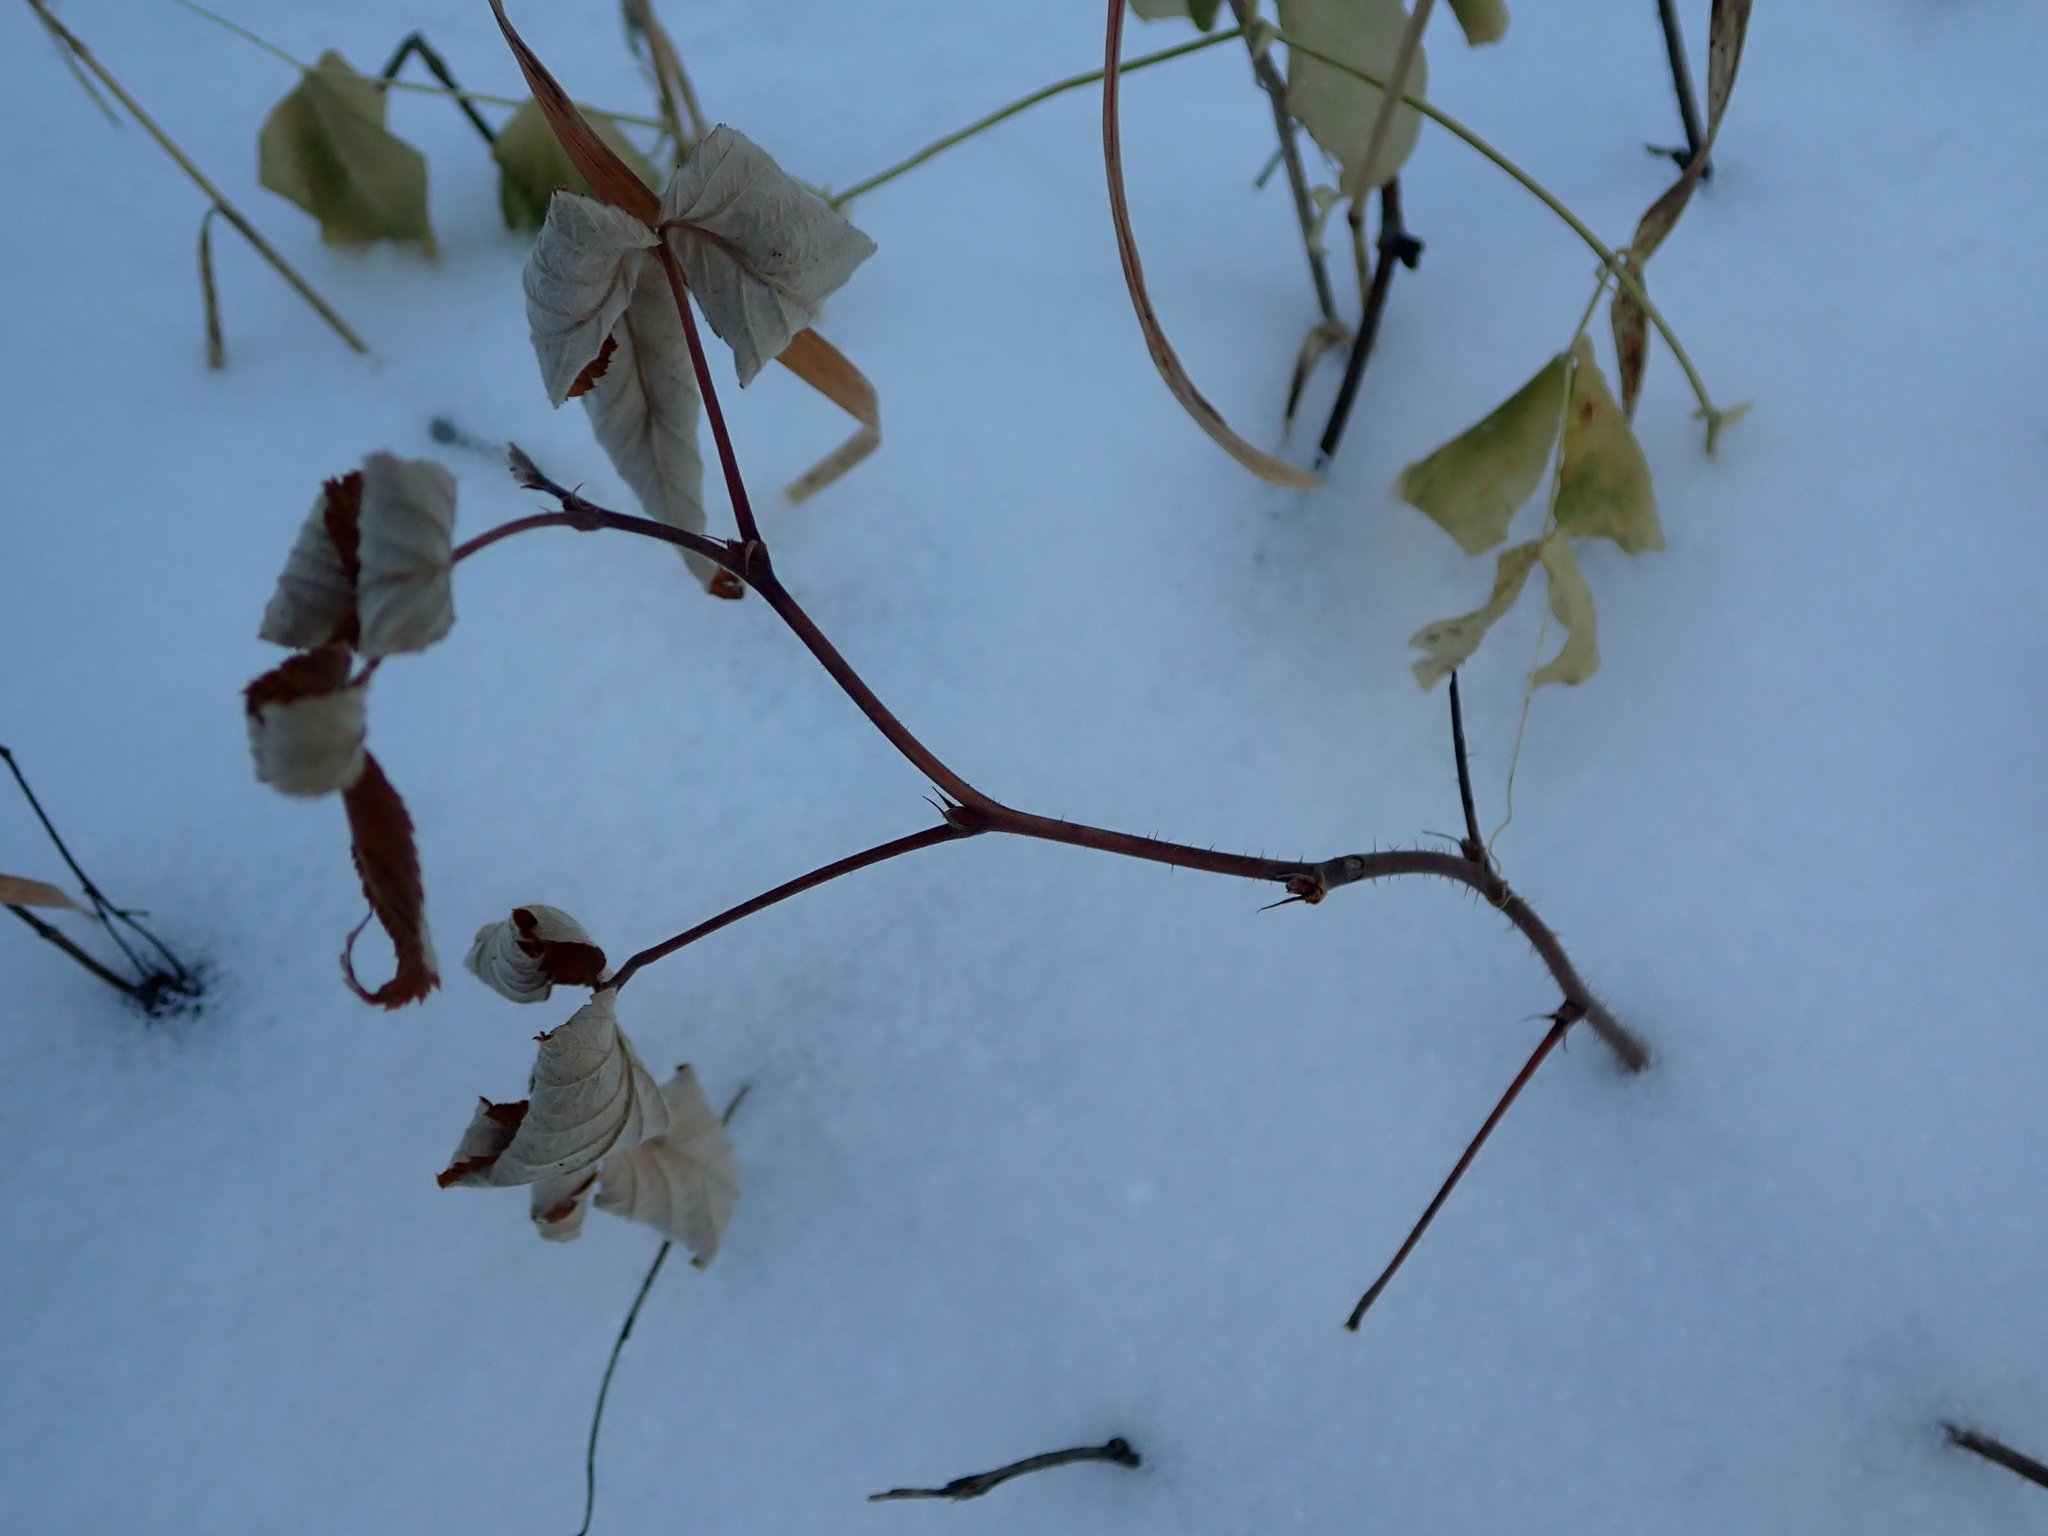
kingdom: Plantae
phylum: Tracheophyta
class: Magnoliopsida
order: Rosales
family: Rosaceae
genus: Rubus
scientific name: Rubus idaeus
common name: Raspberry
